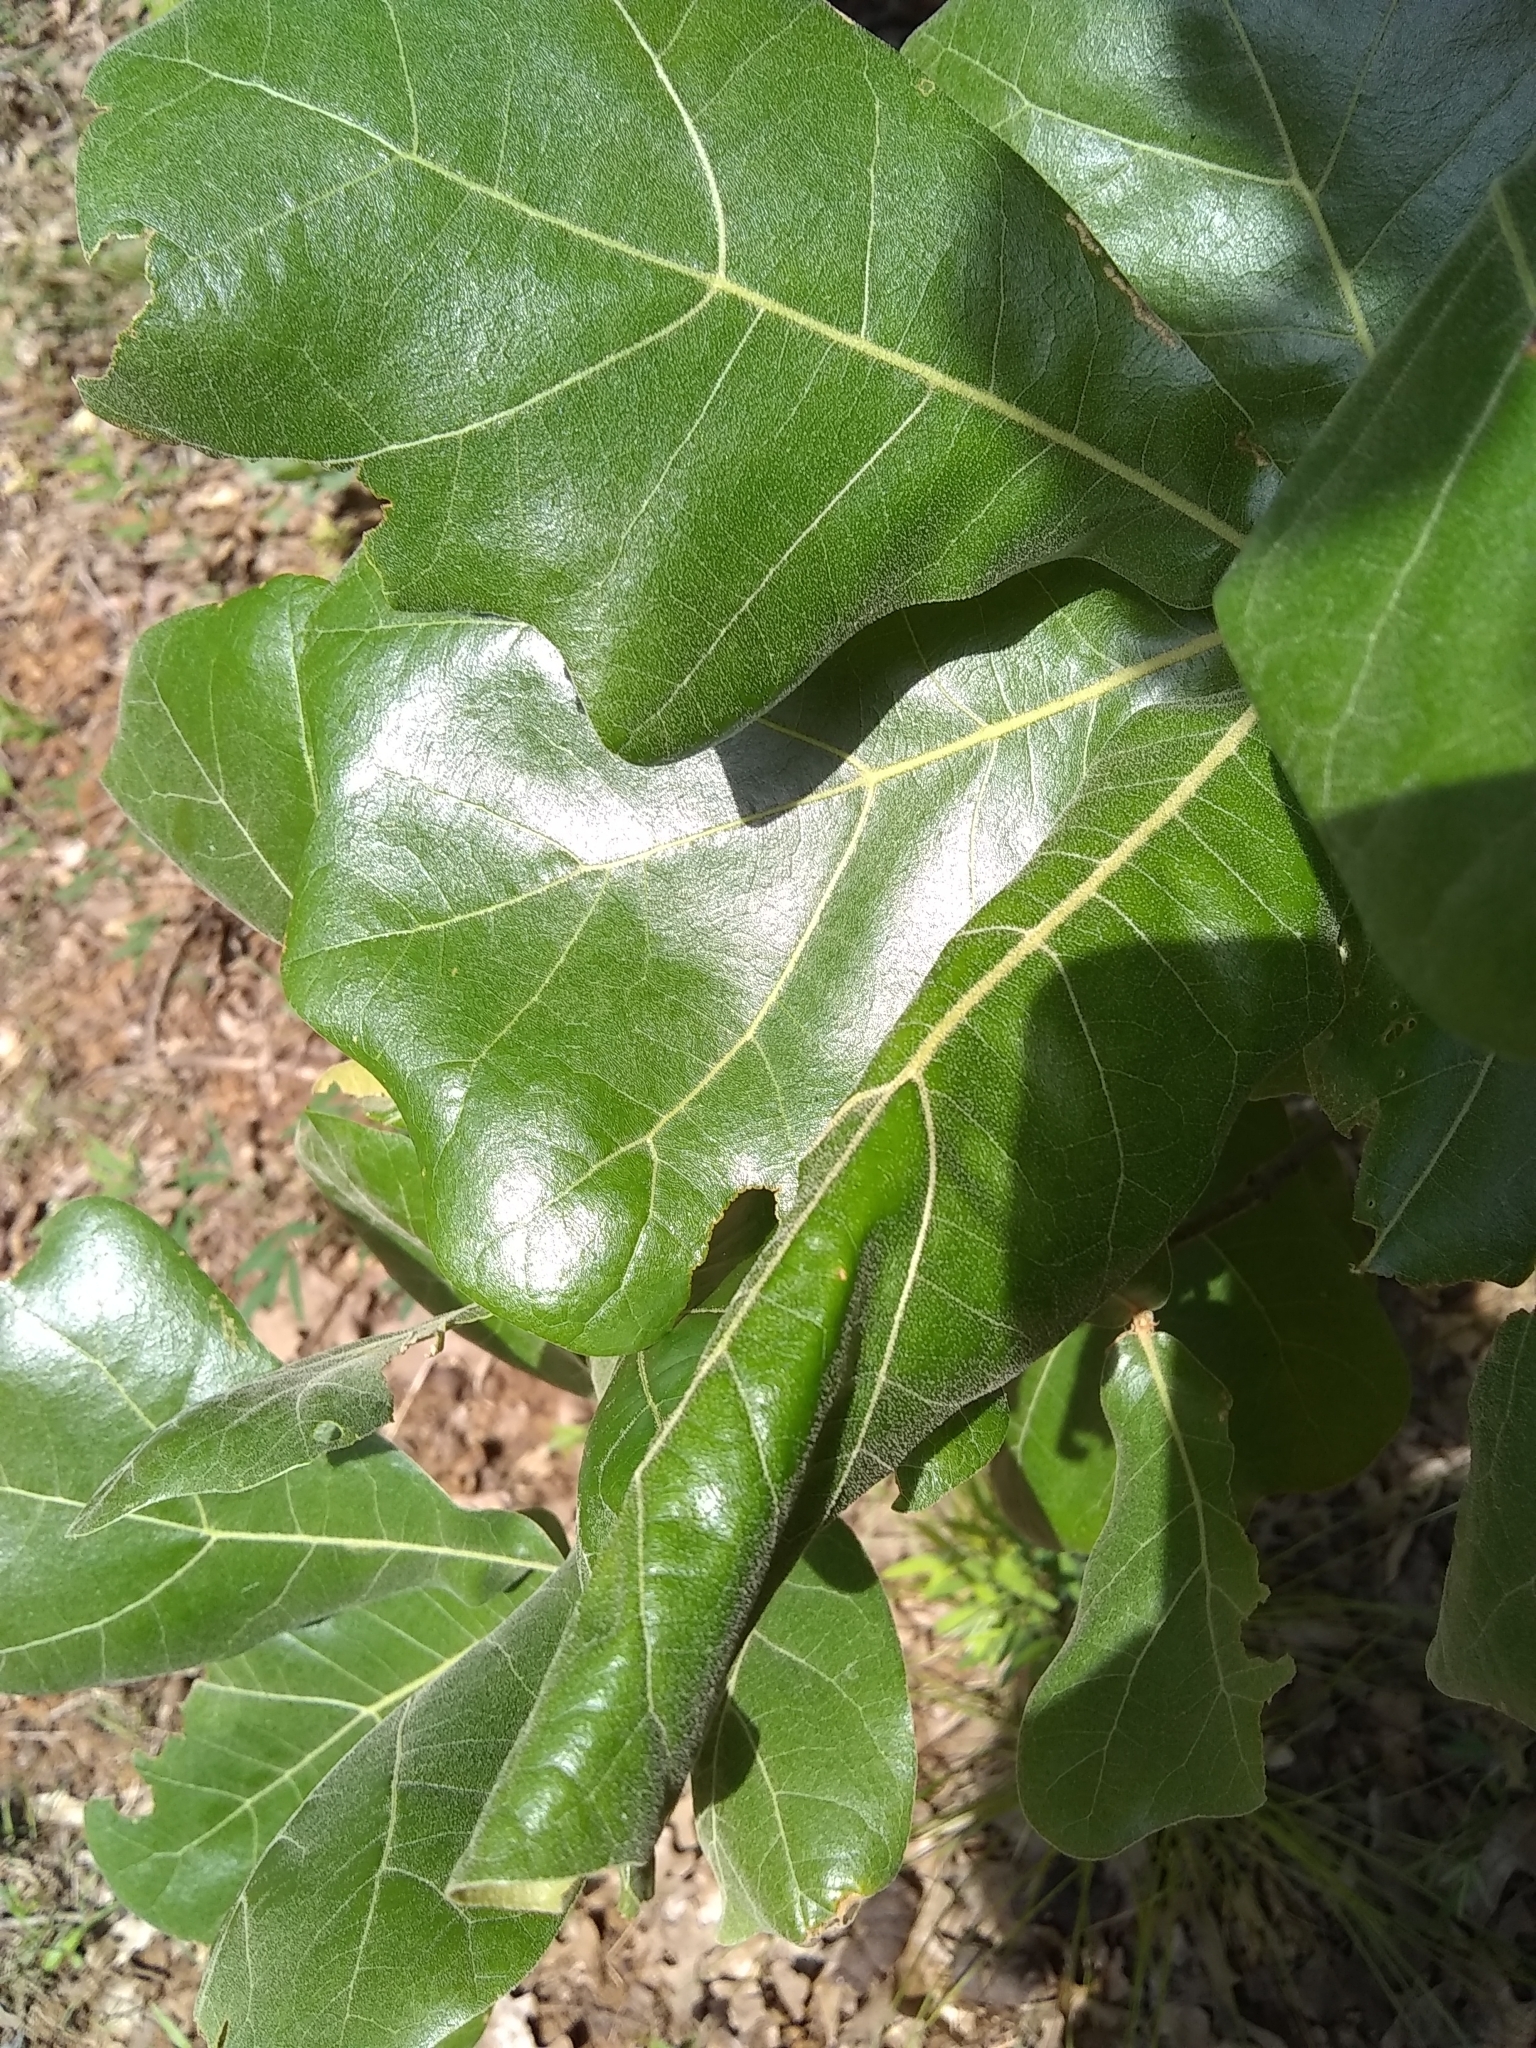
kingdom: Plantae
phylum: Tracheophyta
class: Magnoliopsida
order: Fagales
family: Fagaceae
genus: Quercus
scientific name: Quercus marilandica
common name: Blackjack oak
